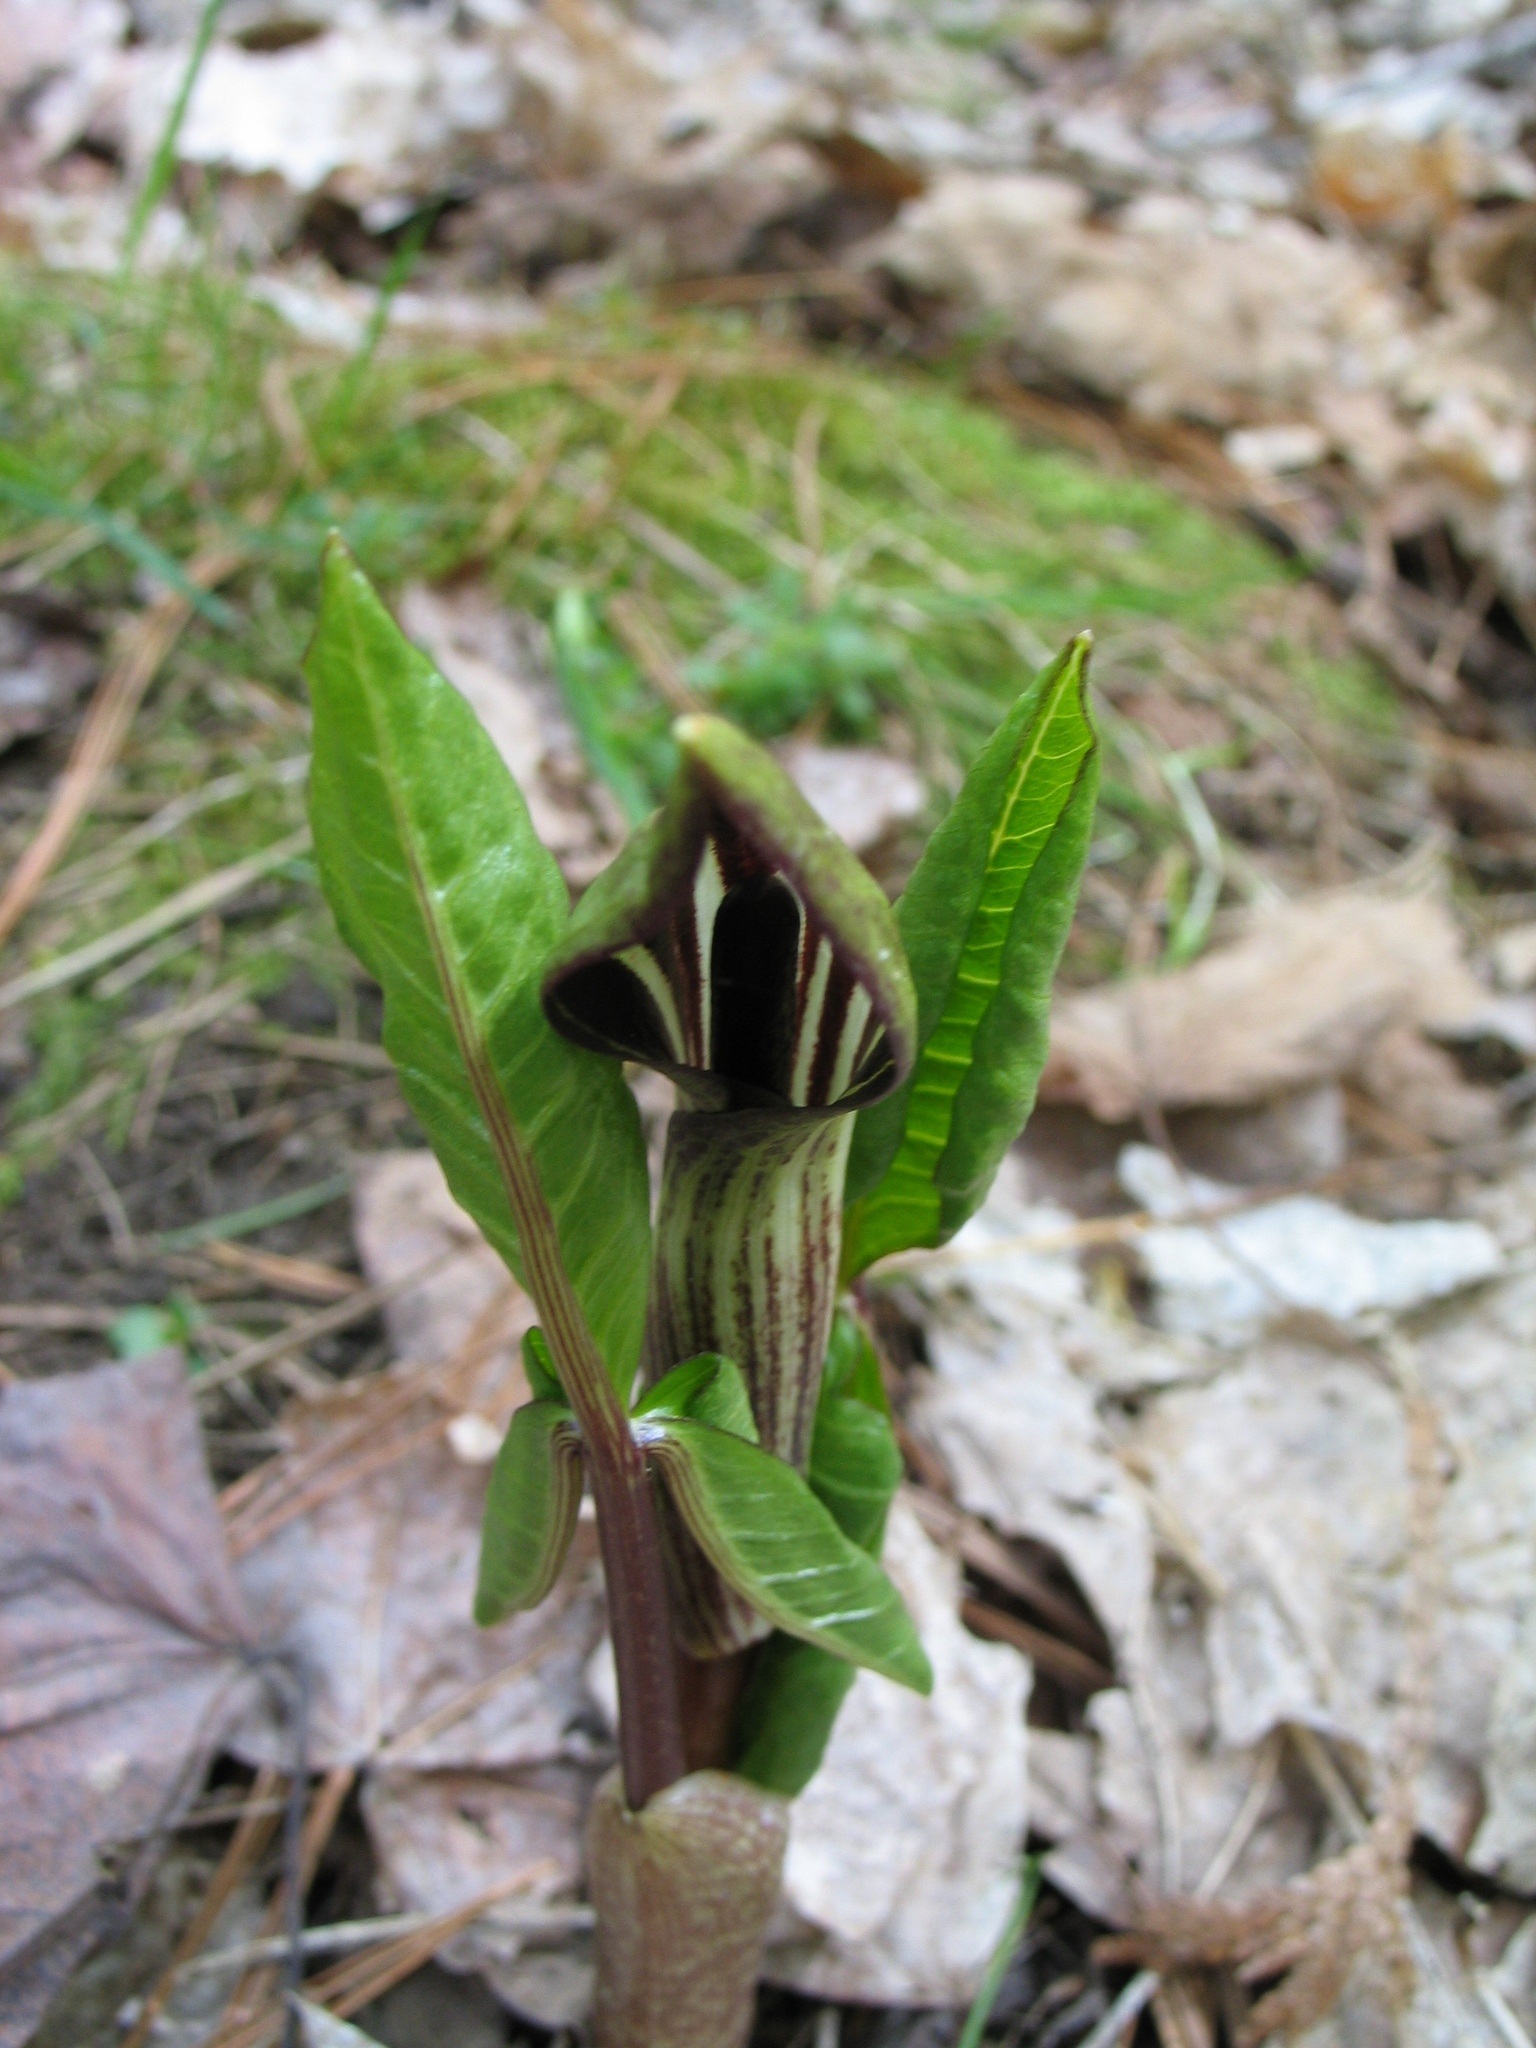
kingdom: Plantae
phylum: Tracheophyta
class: Liliopsida
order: Alismatales
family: Araceae
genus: Arisaema
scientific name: Arisaema triphyllum
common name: Jack-in-the-pulpit
